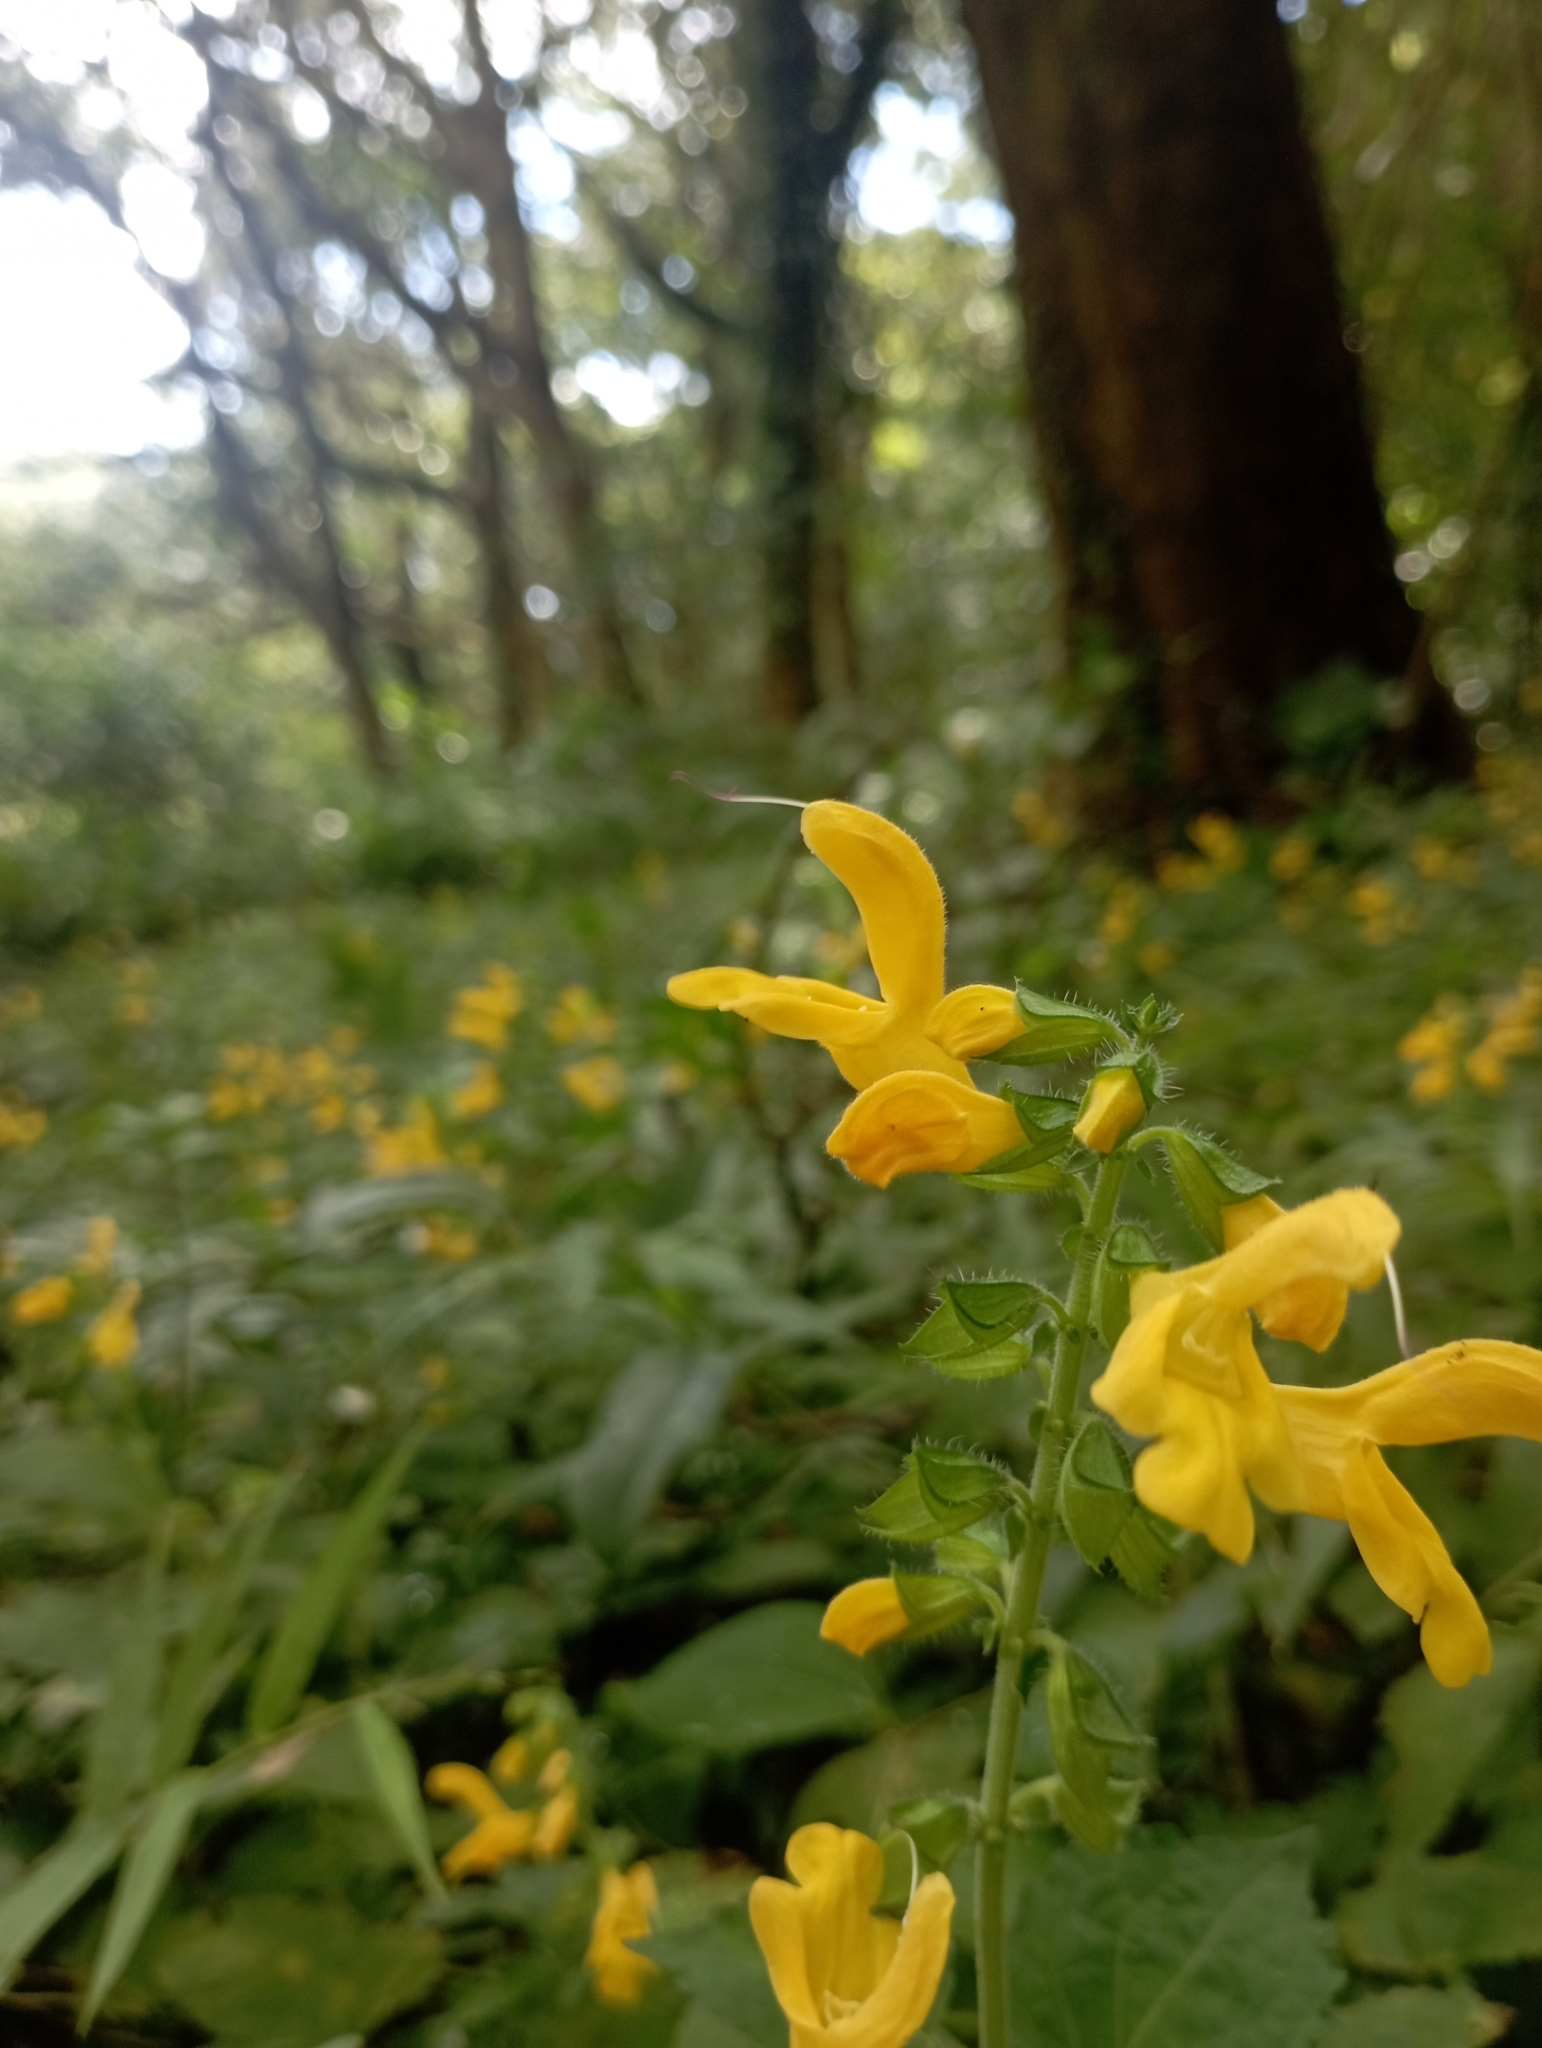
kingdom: Plantae
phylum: Tracheophyta
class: Magnoliopsida
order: Lamiales
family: Lamiaceae
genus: Salvia
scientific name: Salvia japonica
